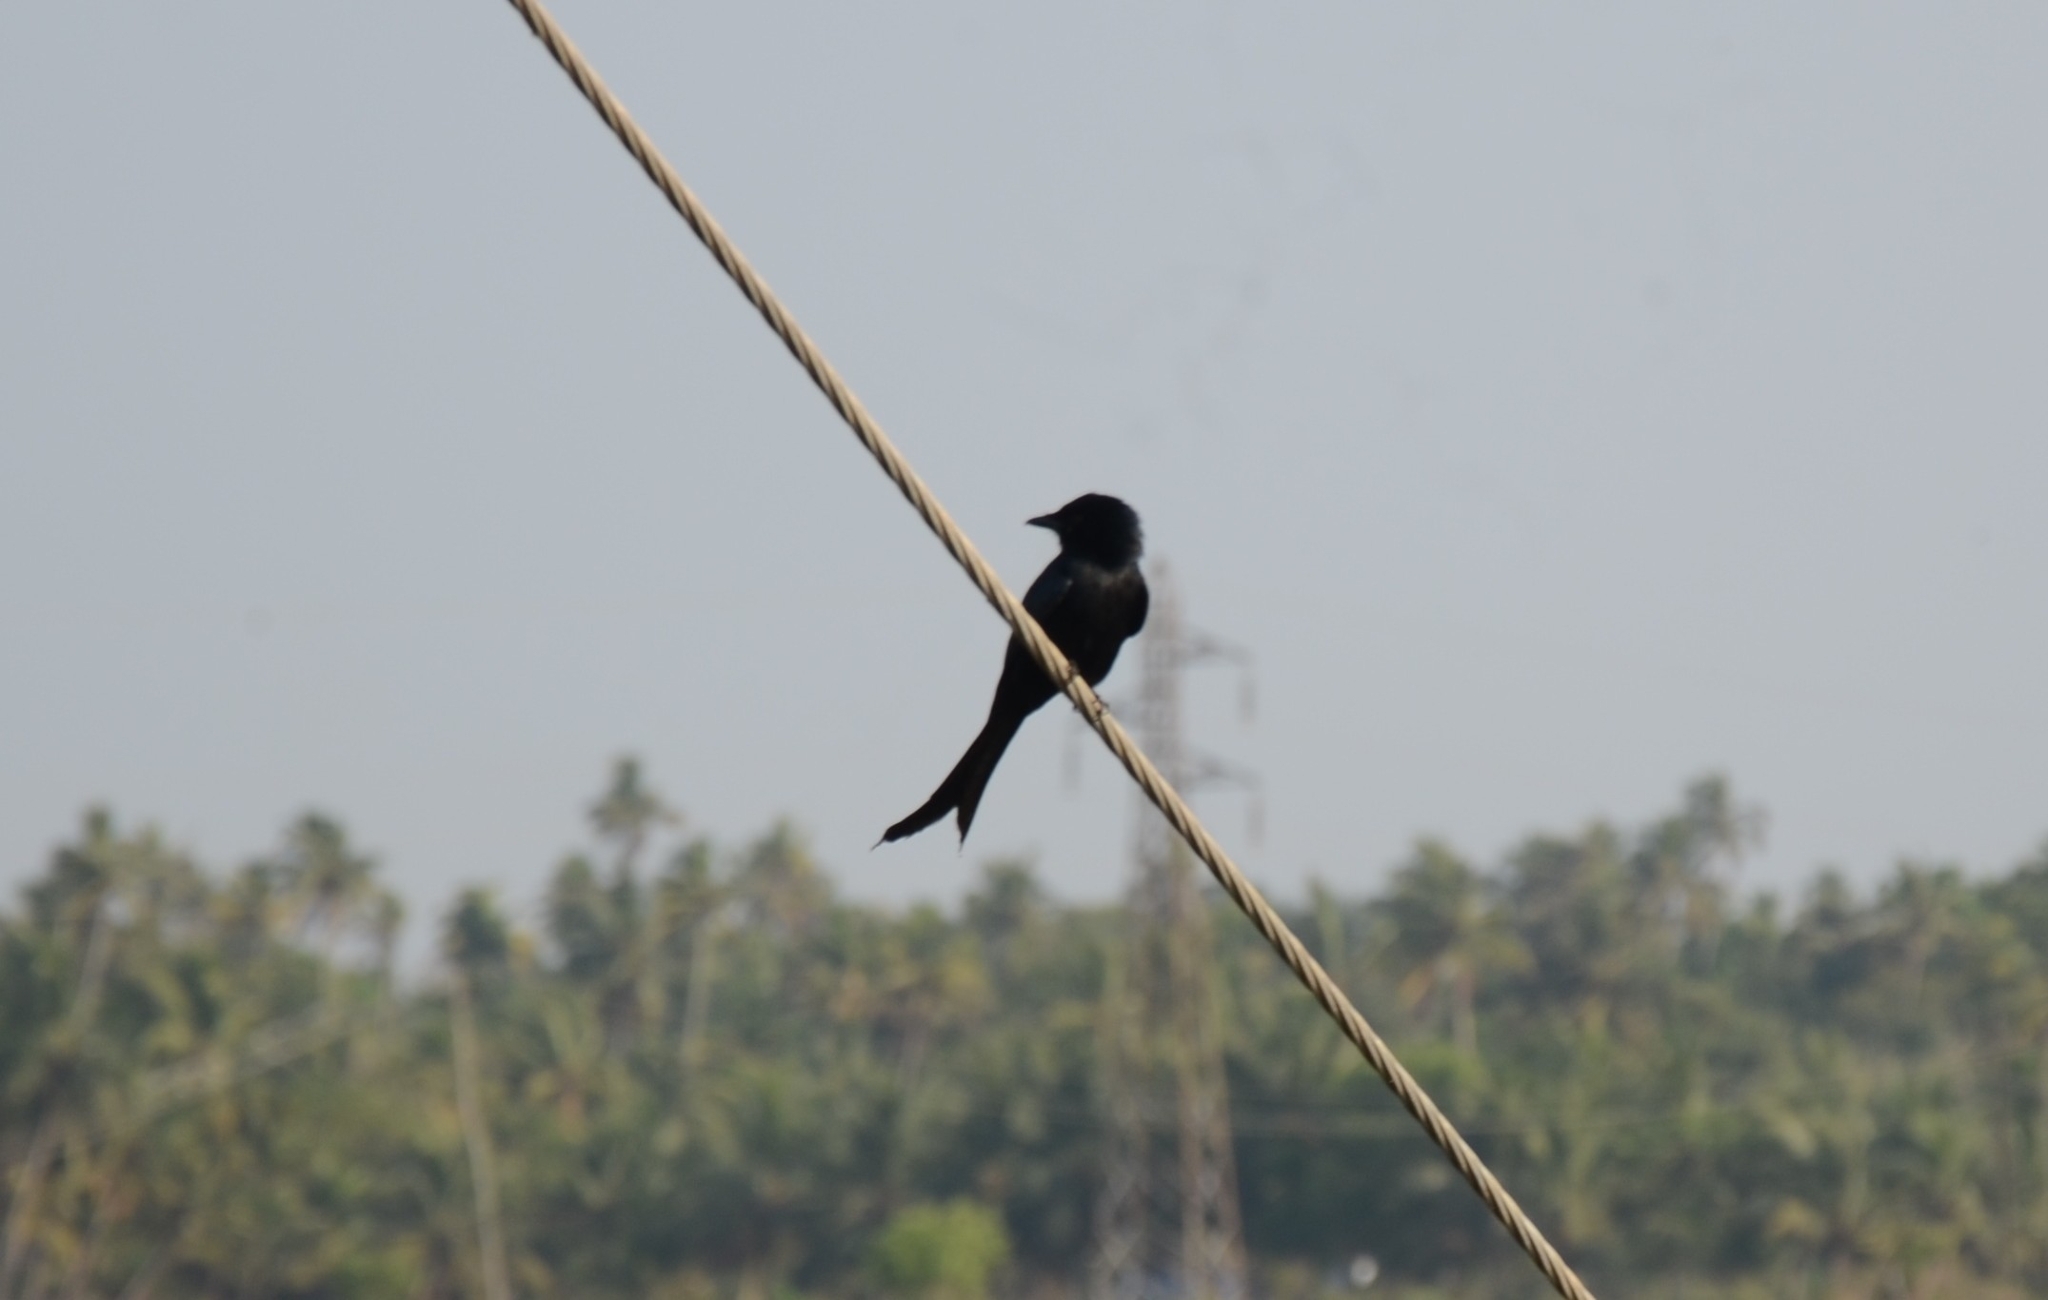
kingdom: Animalia
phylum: Chordata
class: Aves
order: Passeriformes
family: Dicruridae
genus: Dicrurus
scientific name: Dicrurus macrocercus
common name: Black drongo
